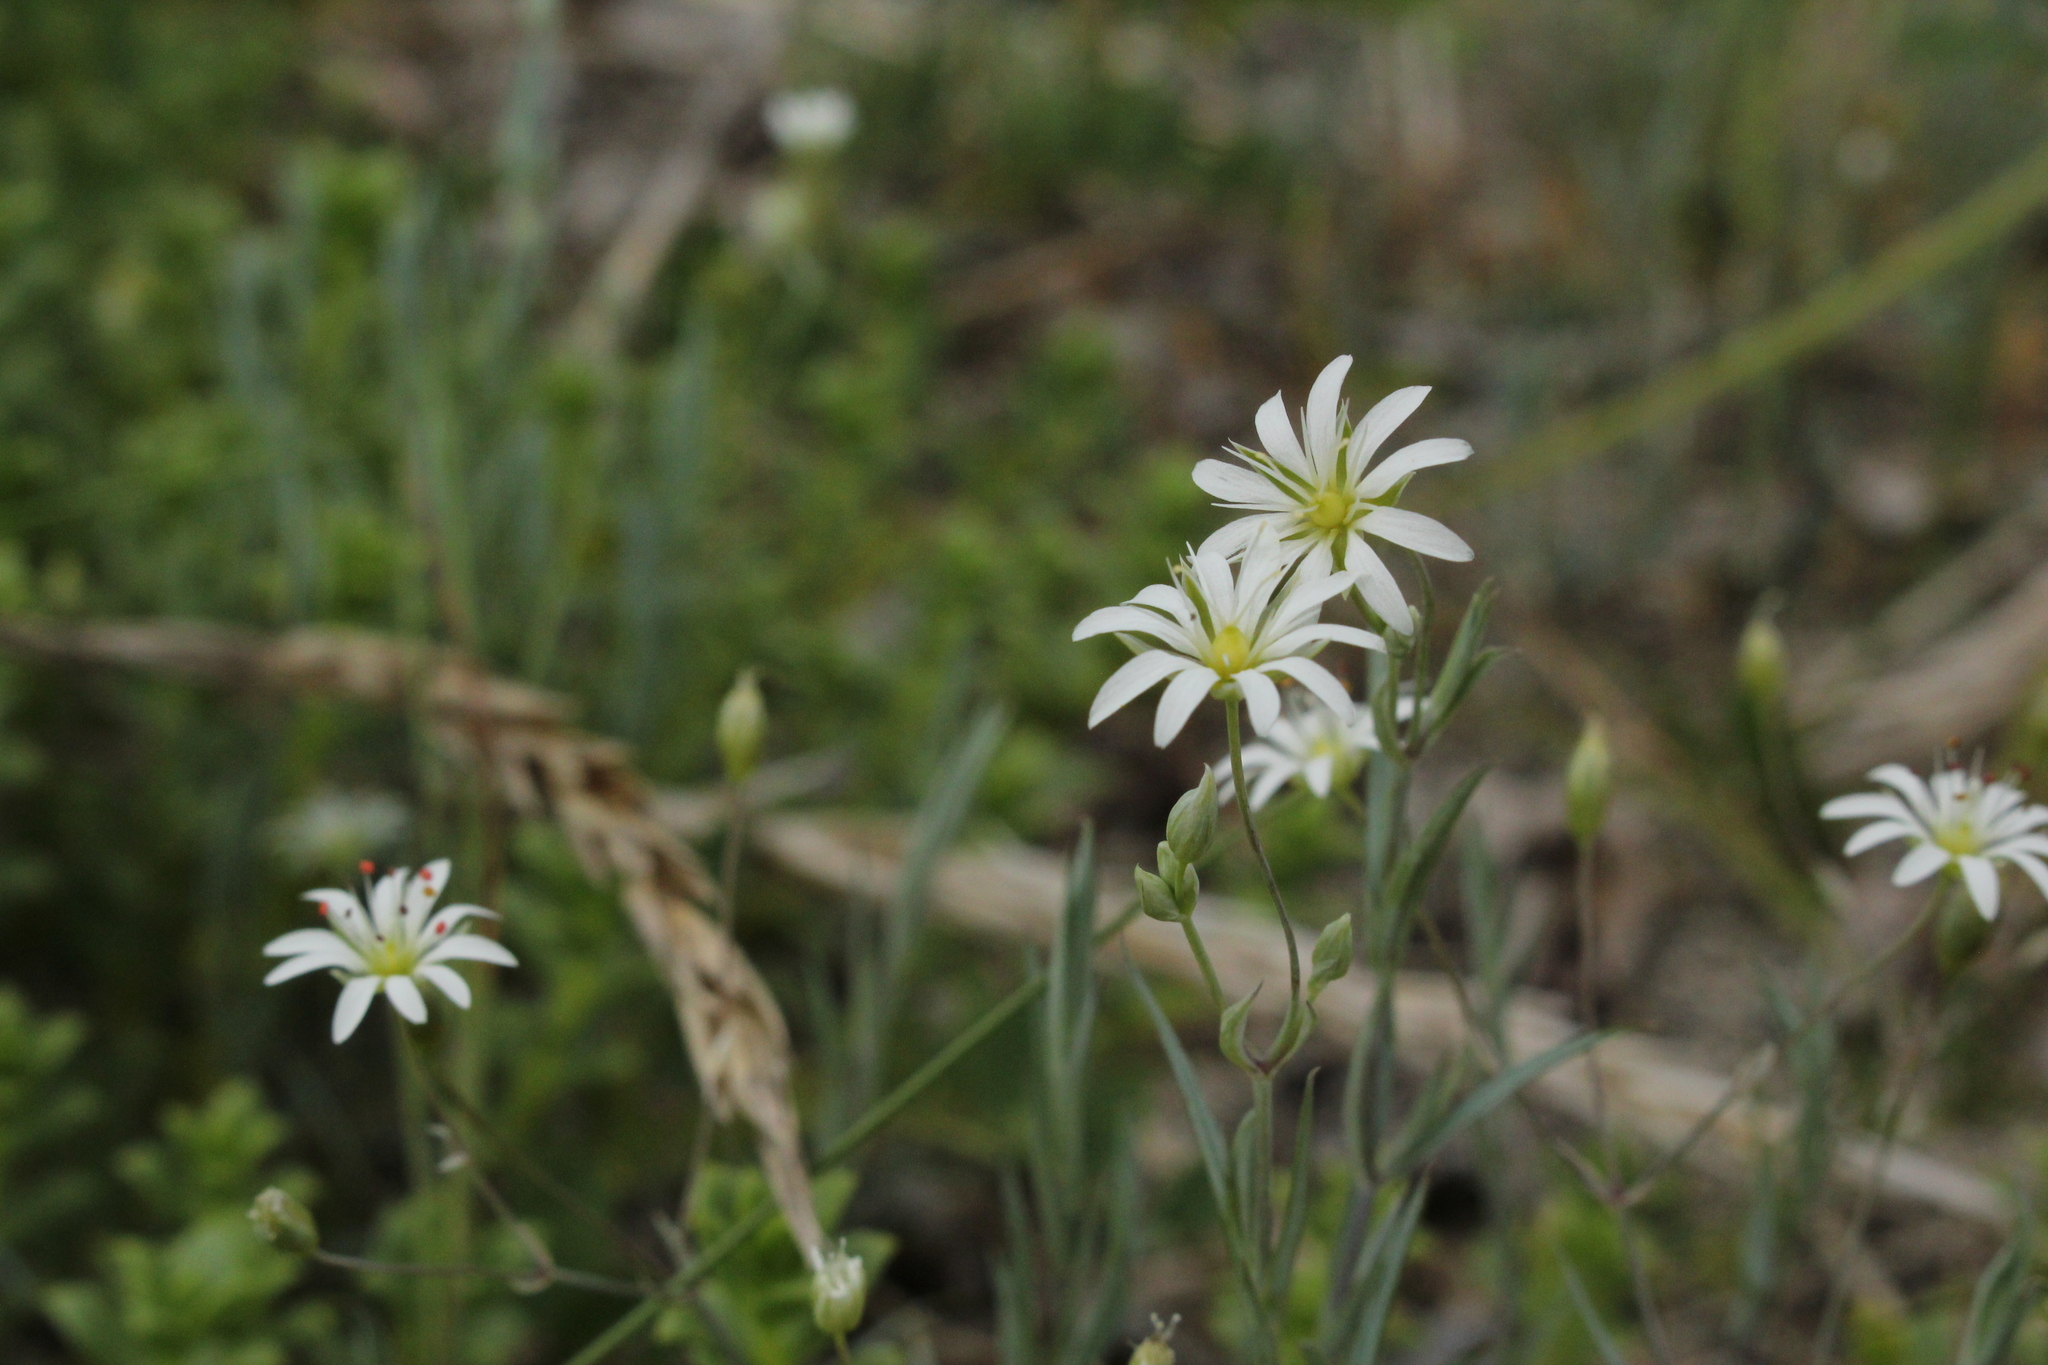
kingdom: Plantae
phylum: Tracheophyta
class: Magnoliopsida
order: Caryophyllales
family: Caryophyllaceae
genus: Stellaria
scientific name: Stellaria longipes
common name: Goldie's starwort
